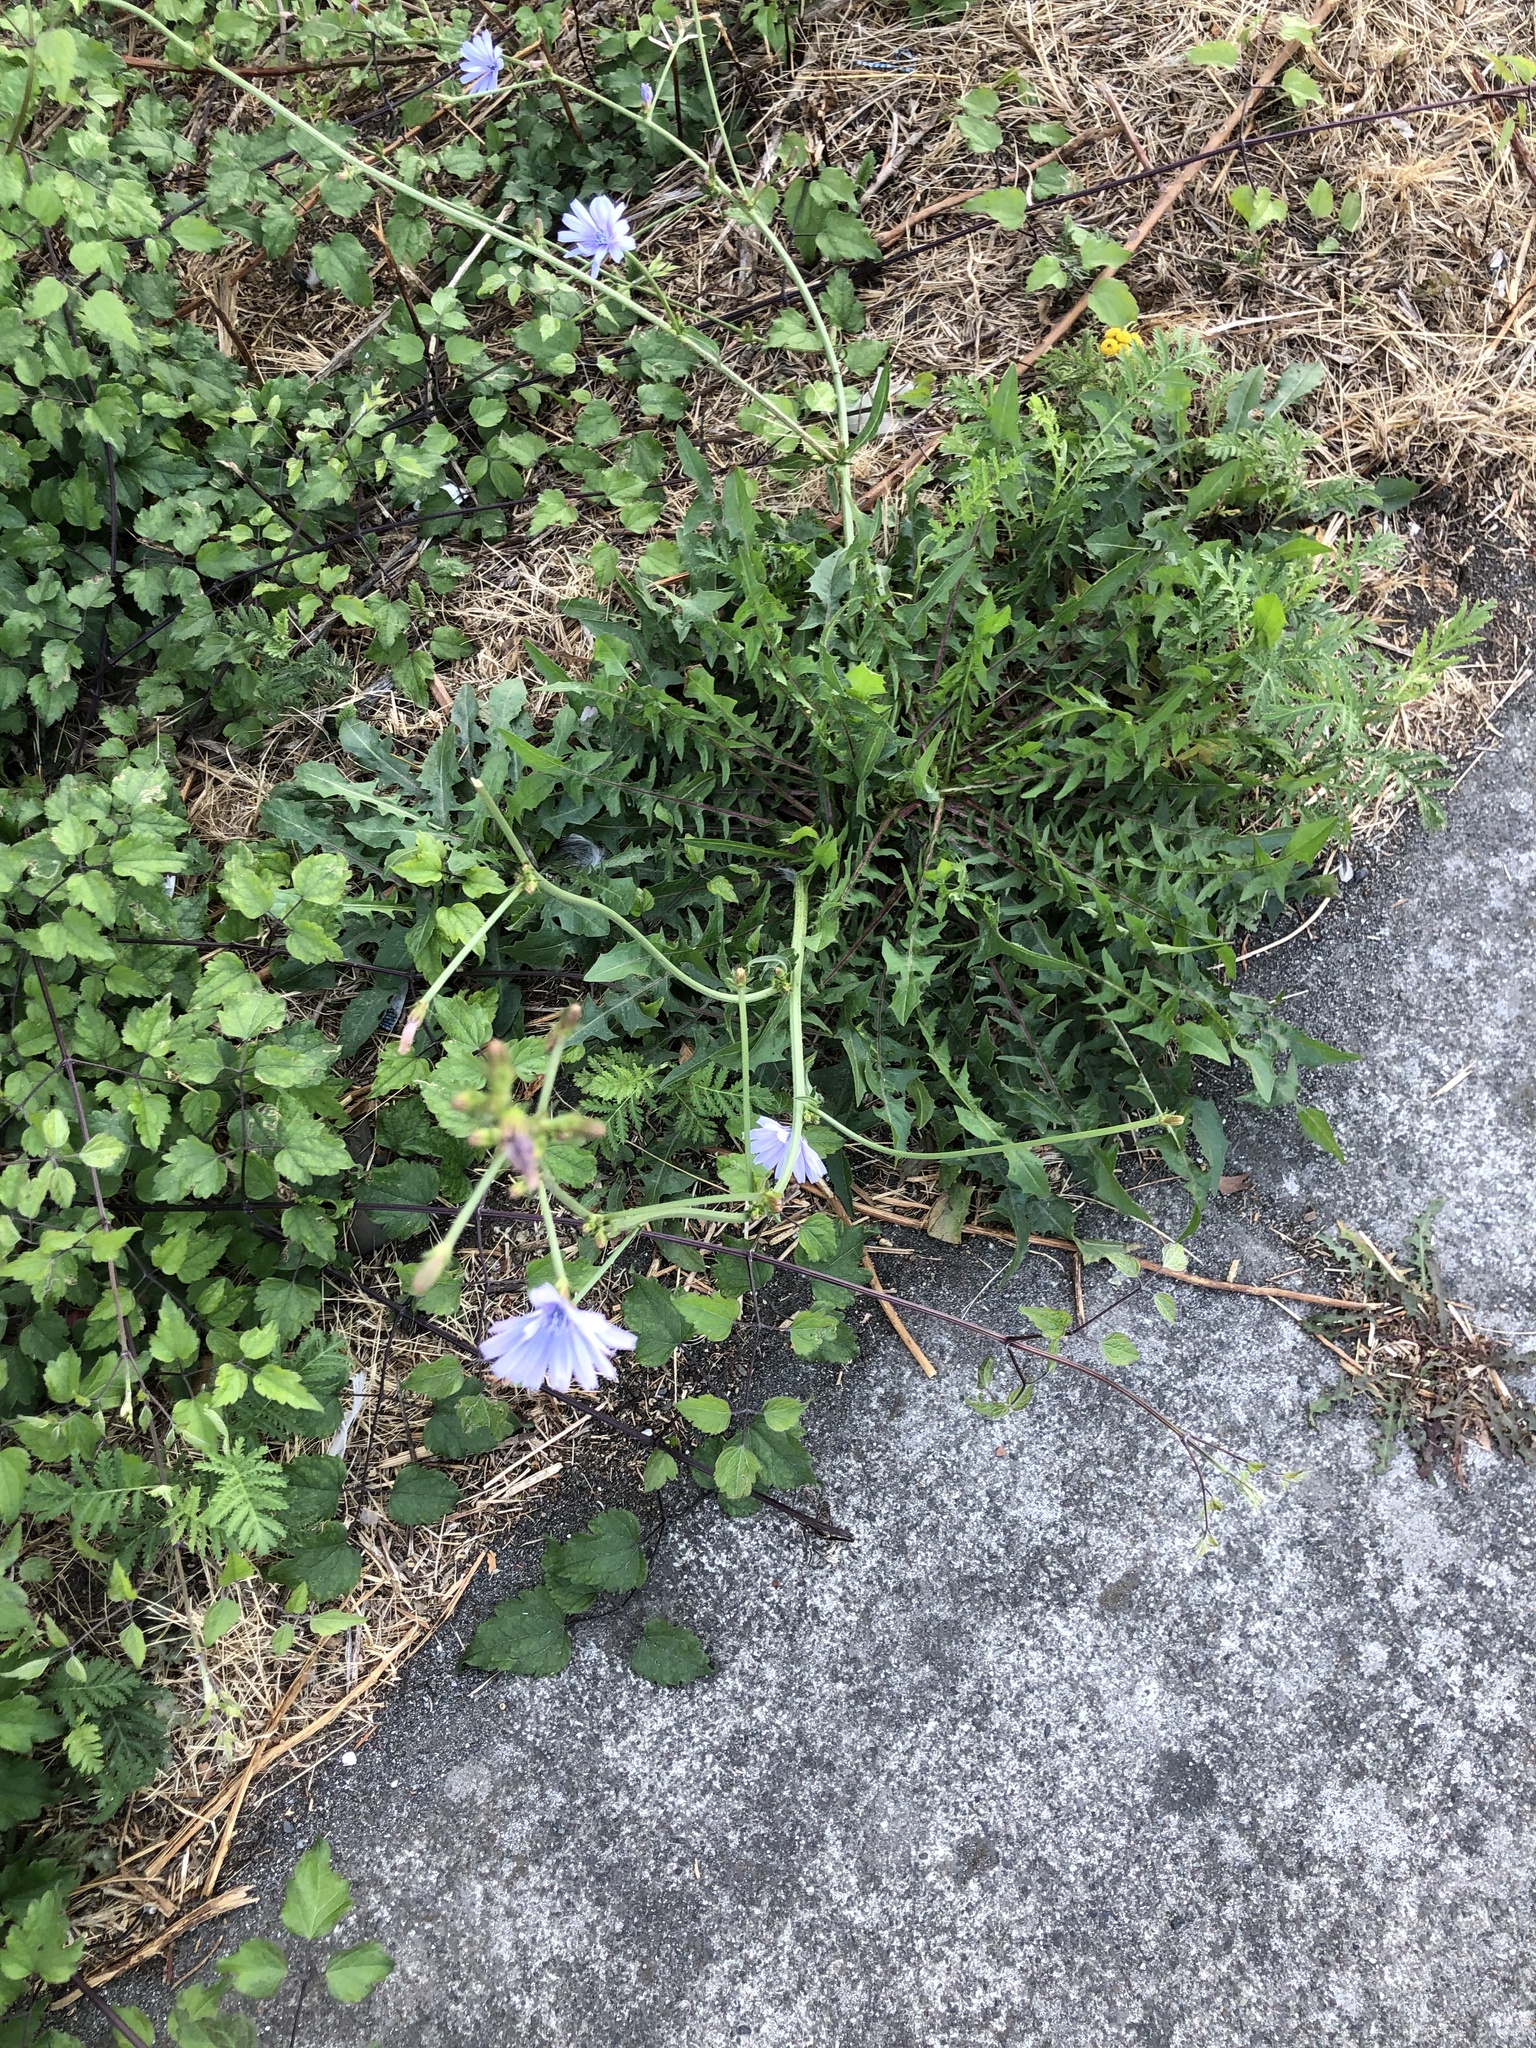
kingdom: Plantae
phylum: Tracheophyta
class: Magnoliopsida
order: Asterales
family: Asteraceae
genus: Cichorium
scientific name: Cichorium intybus
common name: Chicory
